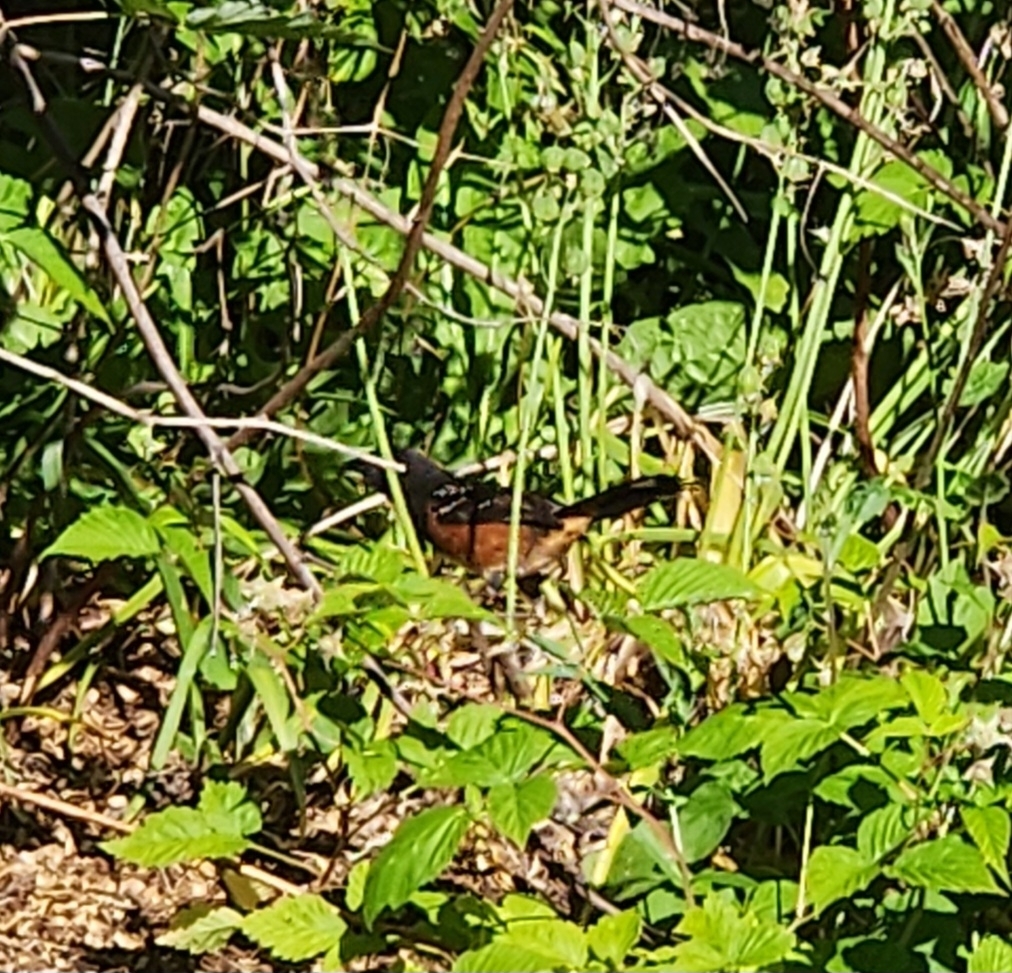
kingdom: Animalia
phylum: Chordata
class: Aves
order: Passeriformes
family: Passerellidae
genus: Pipilo
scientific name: Pipilo maculatus
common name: Spotted towhee
